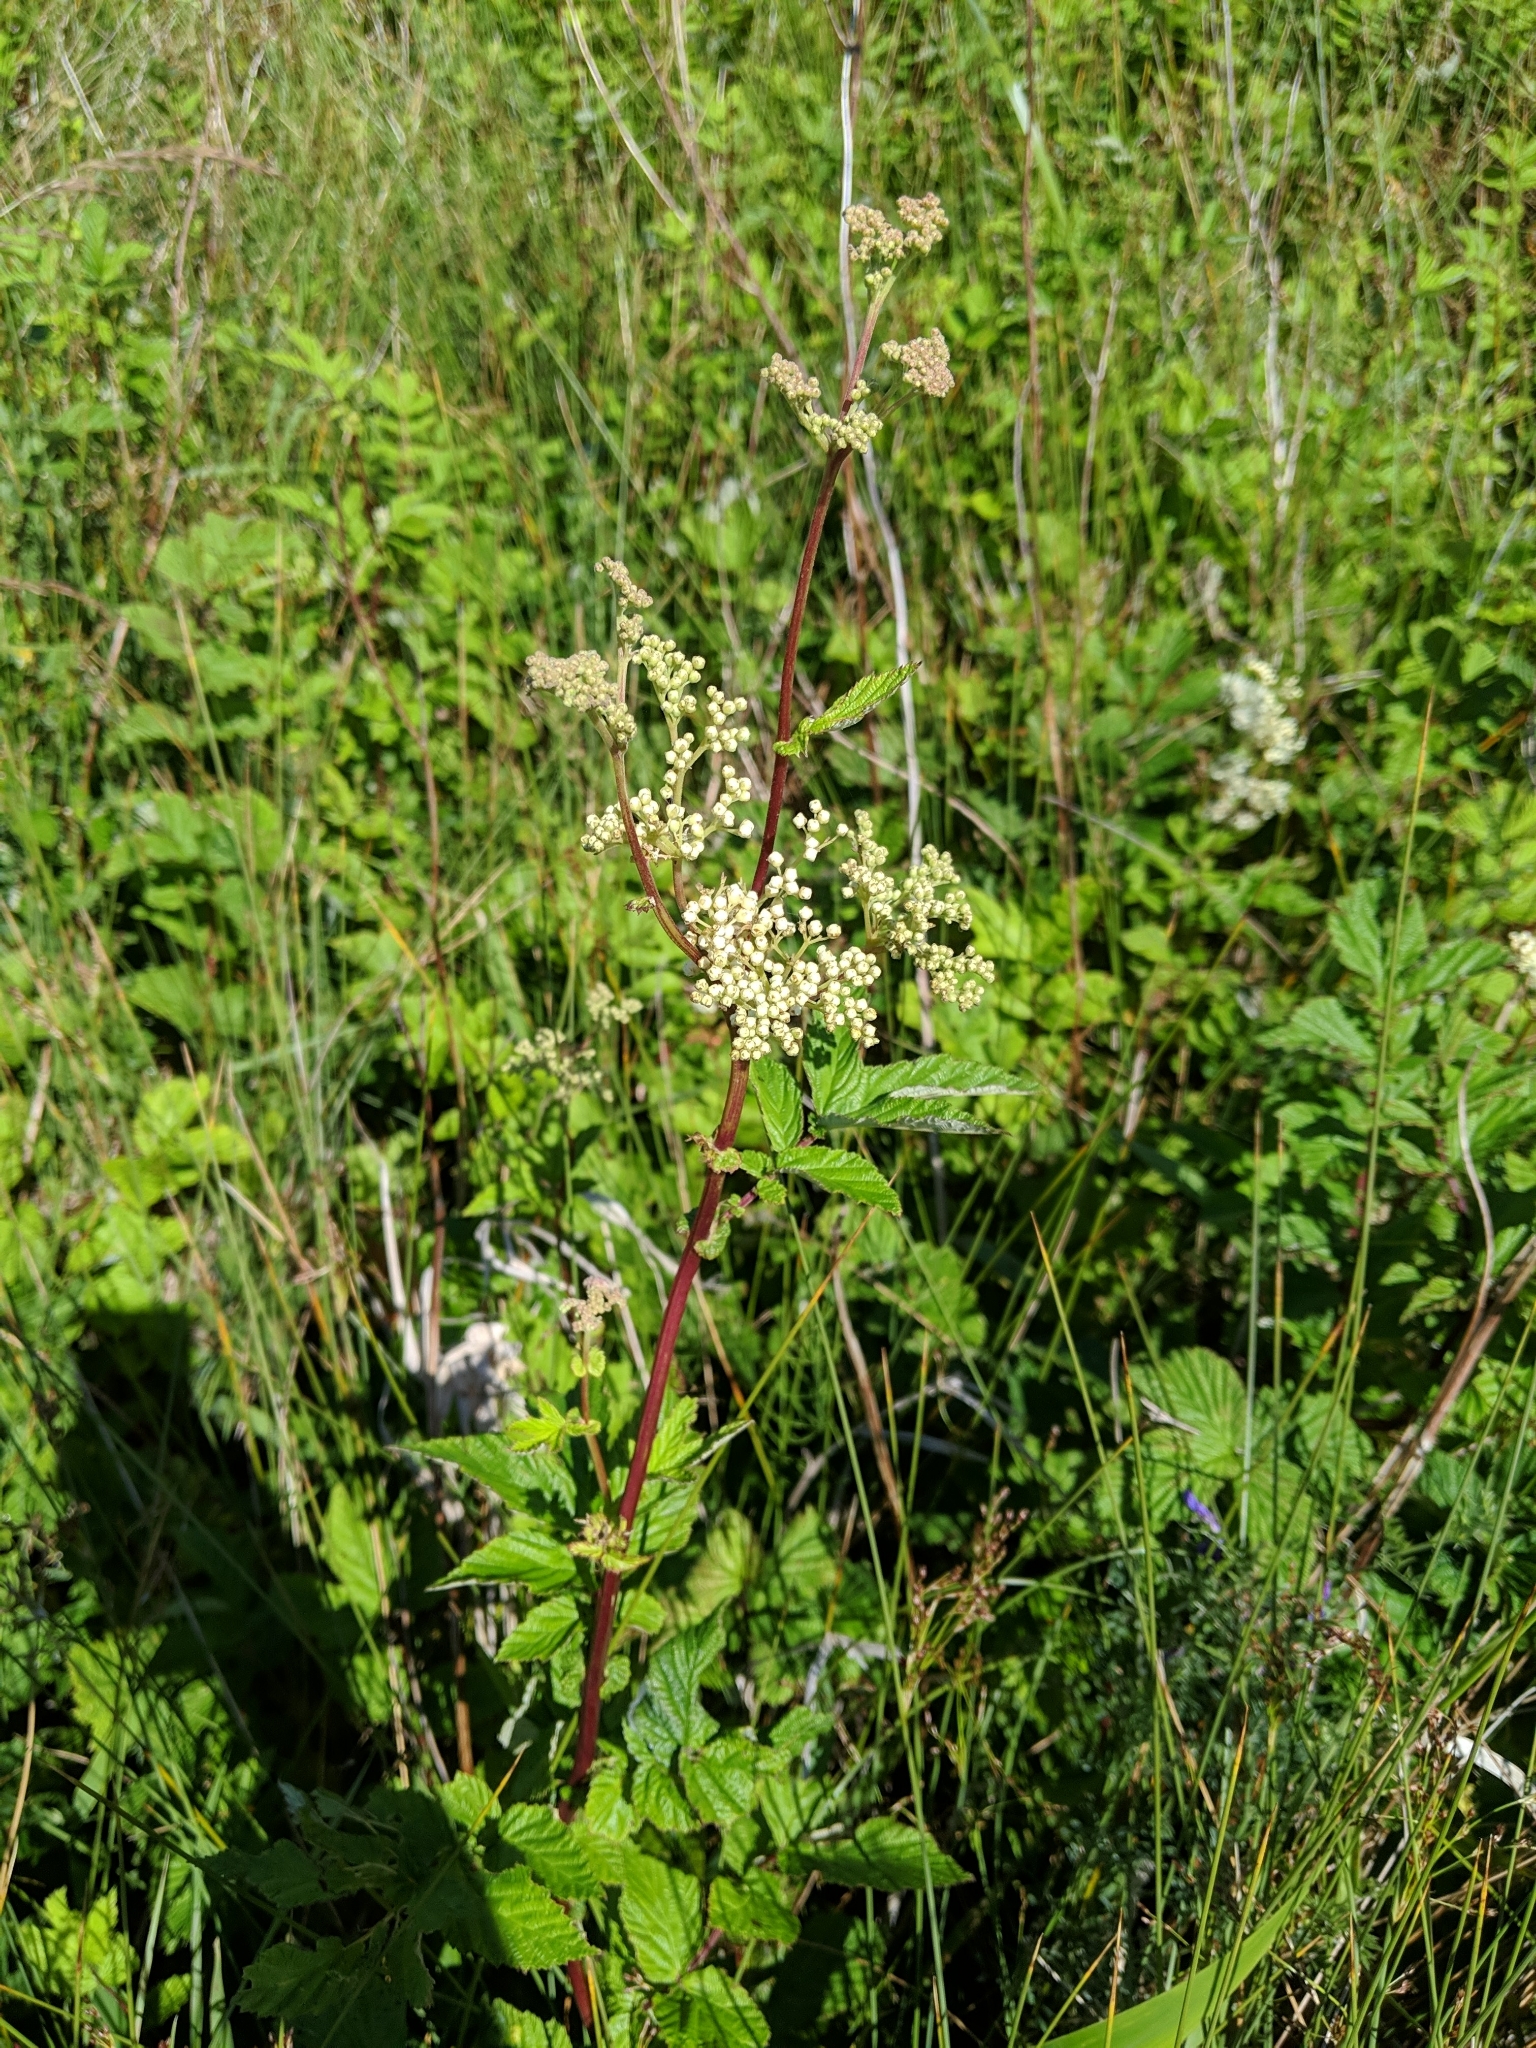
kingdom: Plantae
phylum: Tracheophyta
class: Magnoliopsida
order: Rosales
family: Rosaceae
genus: Filipendula
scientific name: Filipendula ulmaria
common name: Meadowsweet
